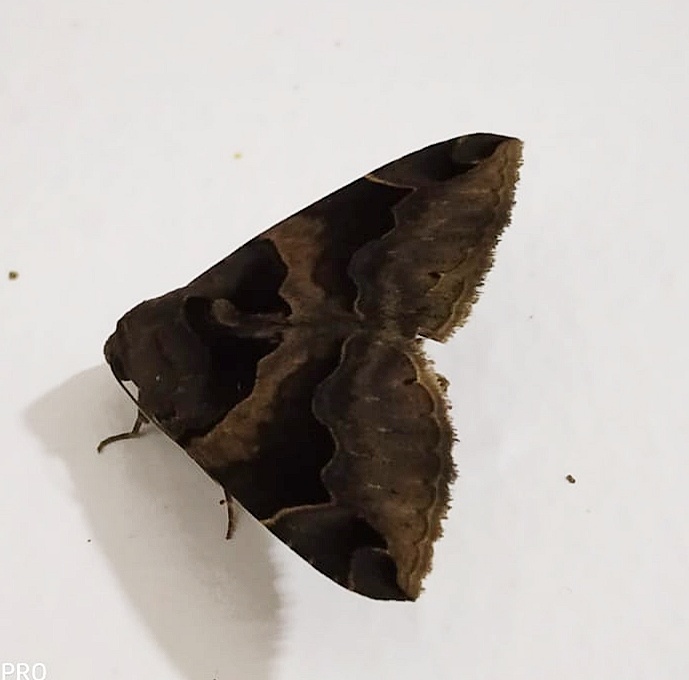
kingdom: Animalia
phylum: Arthropoda
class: Insecta
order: Lepidoptera
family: Erebidae
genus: Dysgonia
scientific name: Dysgonia simillima
